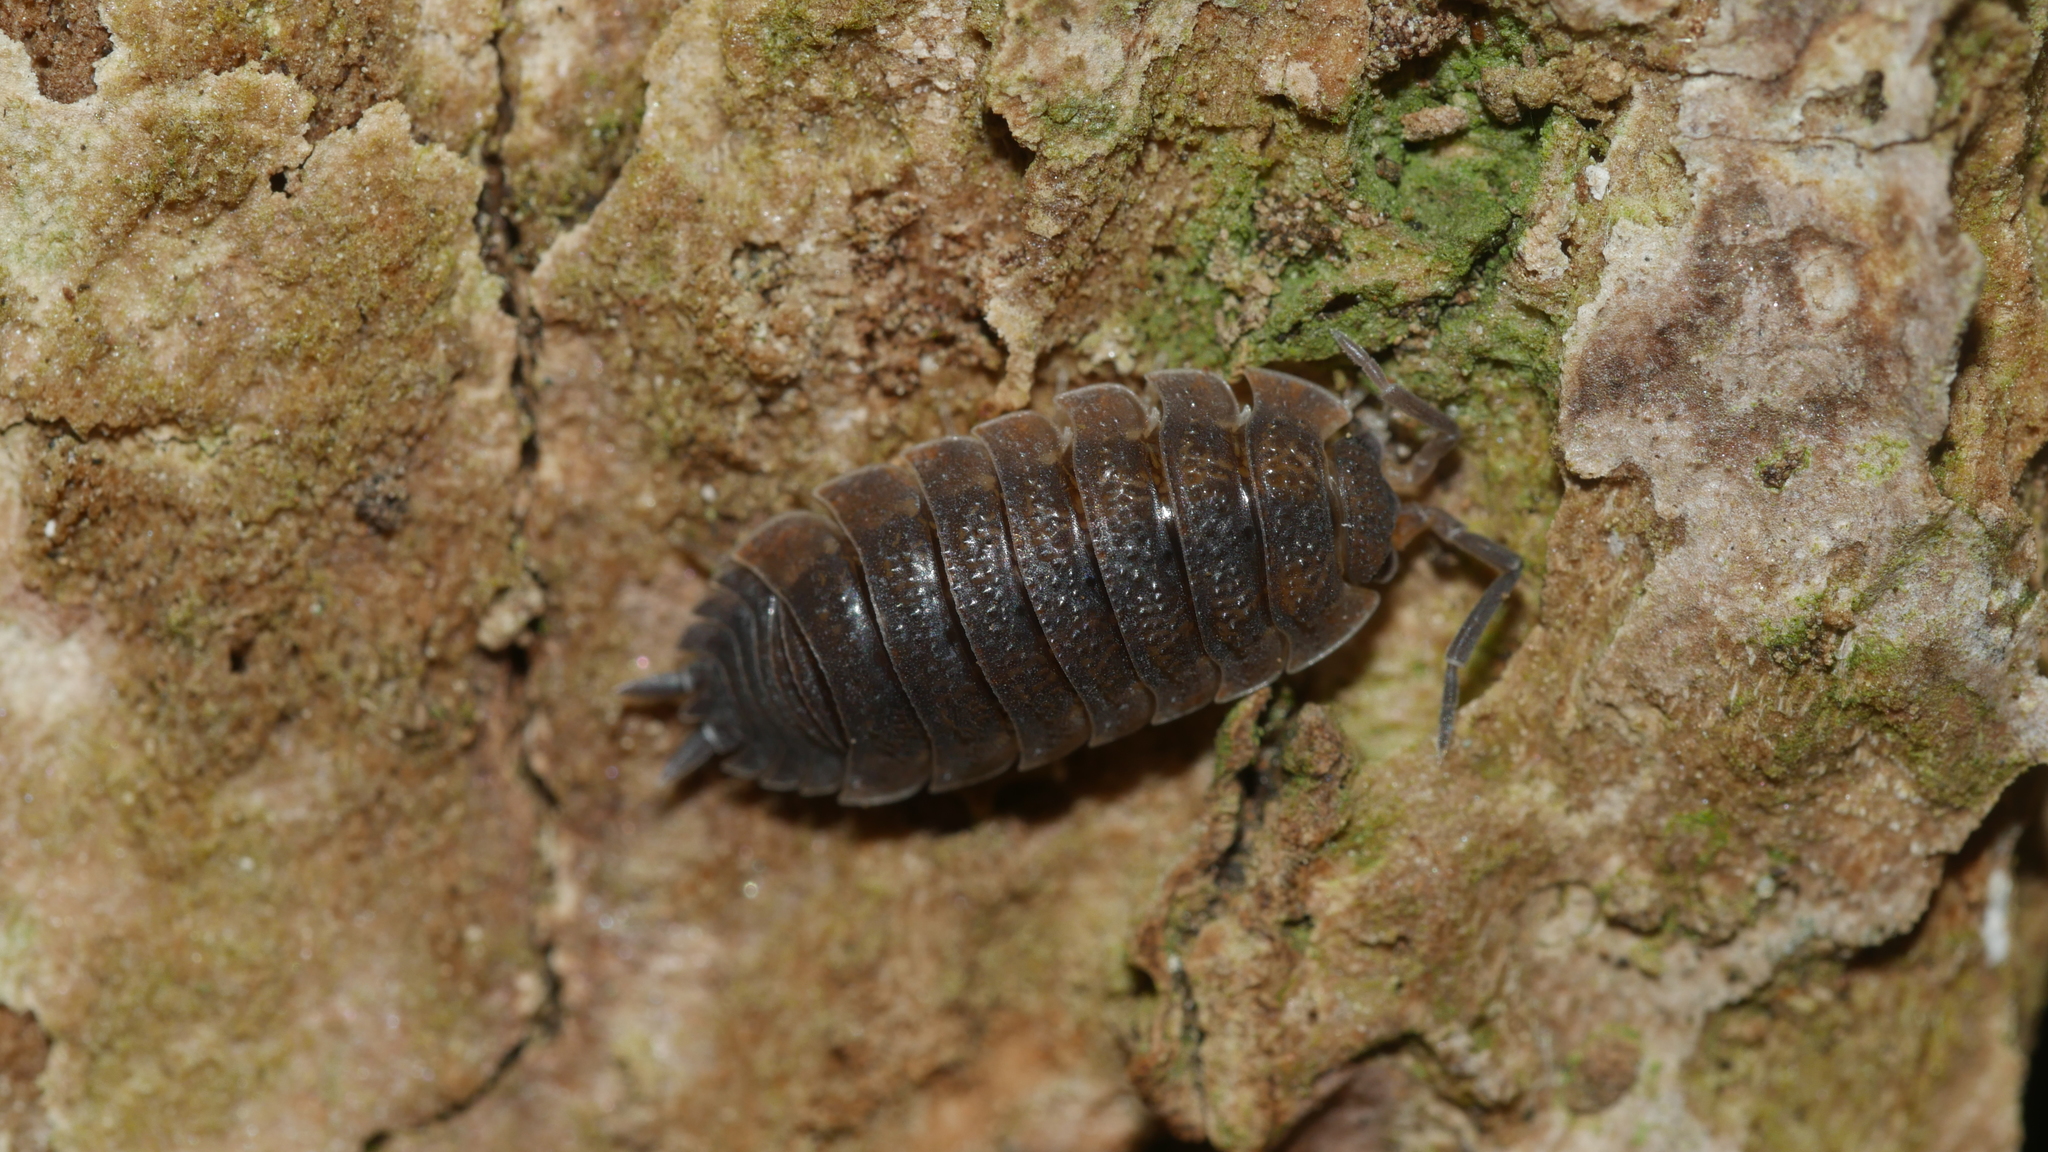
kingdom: Animalia
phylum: Arthropoda
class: Malacostraca
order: Isopoda
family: Porcellionidae
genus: Porcellio
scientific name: Porcellio scaber
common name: Common rough woodlouse
